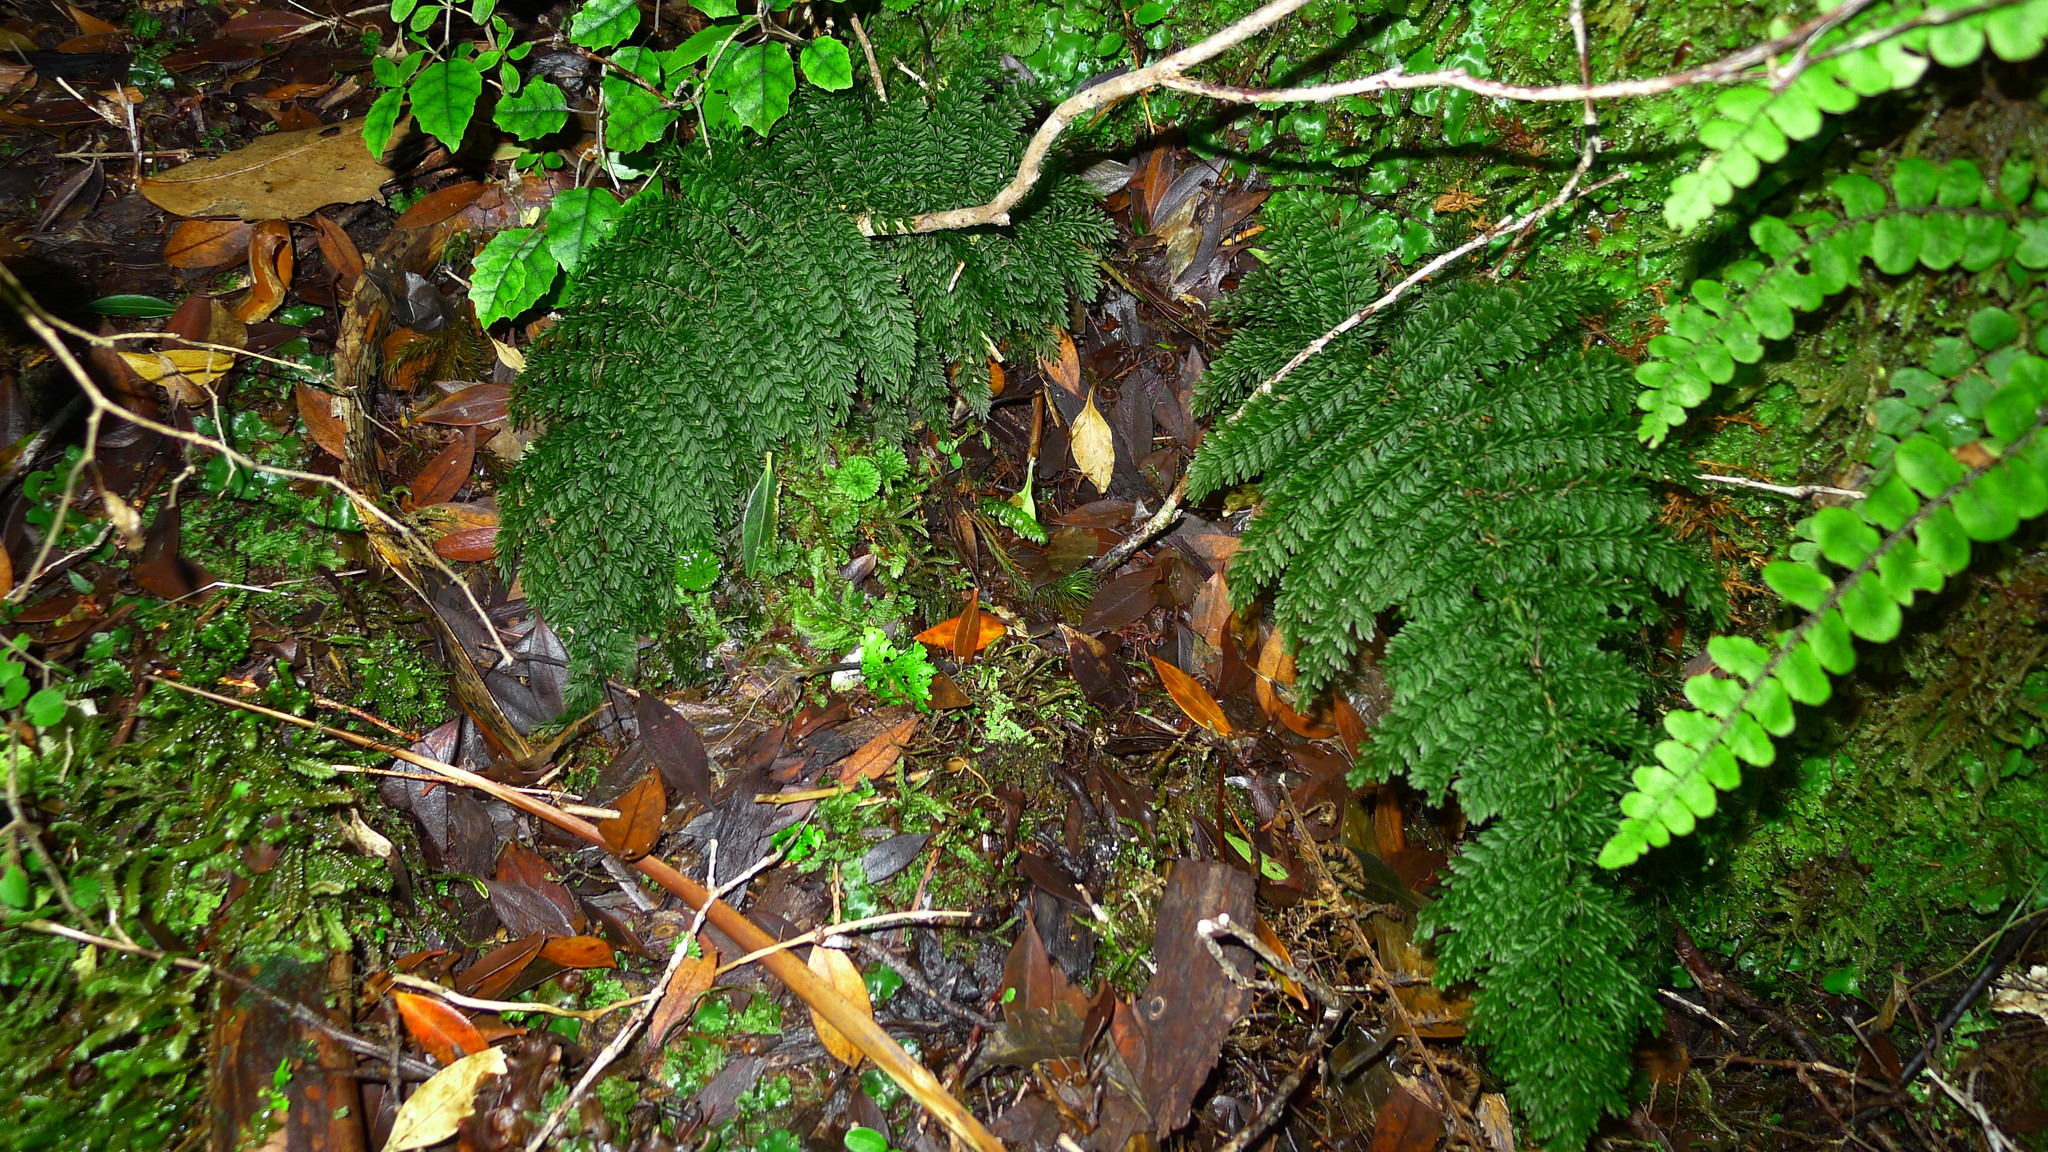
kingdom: Plantae
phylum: Tracheophyta
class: Polypodiopsida
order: Osmundales
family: Osmundaceae
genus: Leptopteris
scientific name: Leptopteris superba
